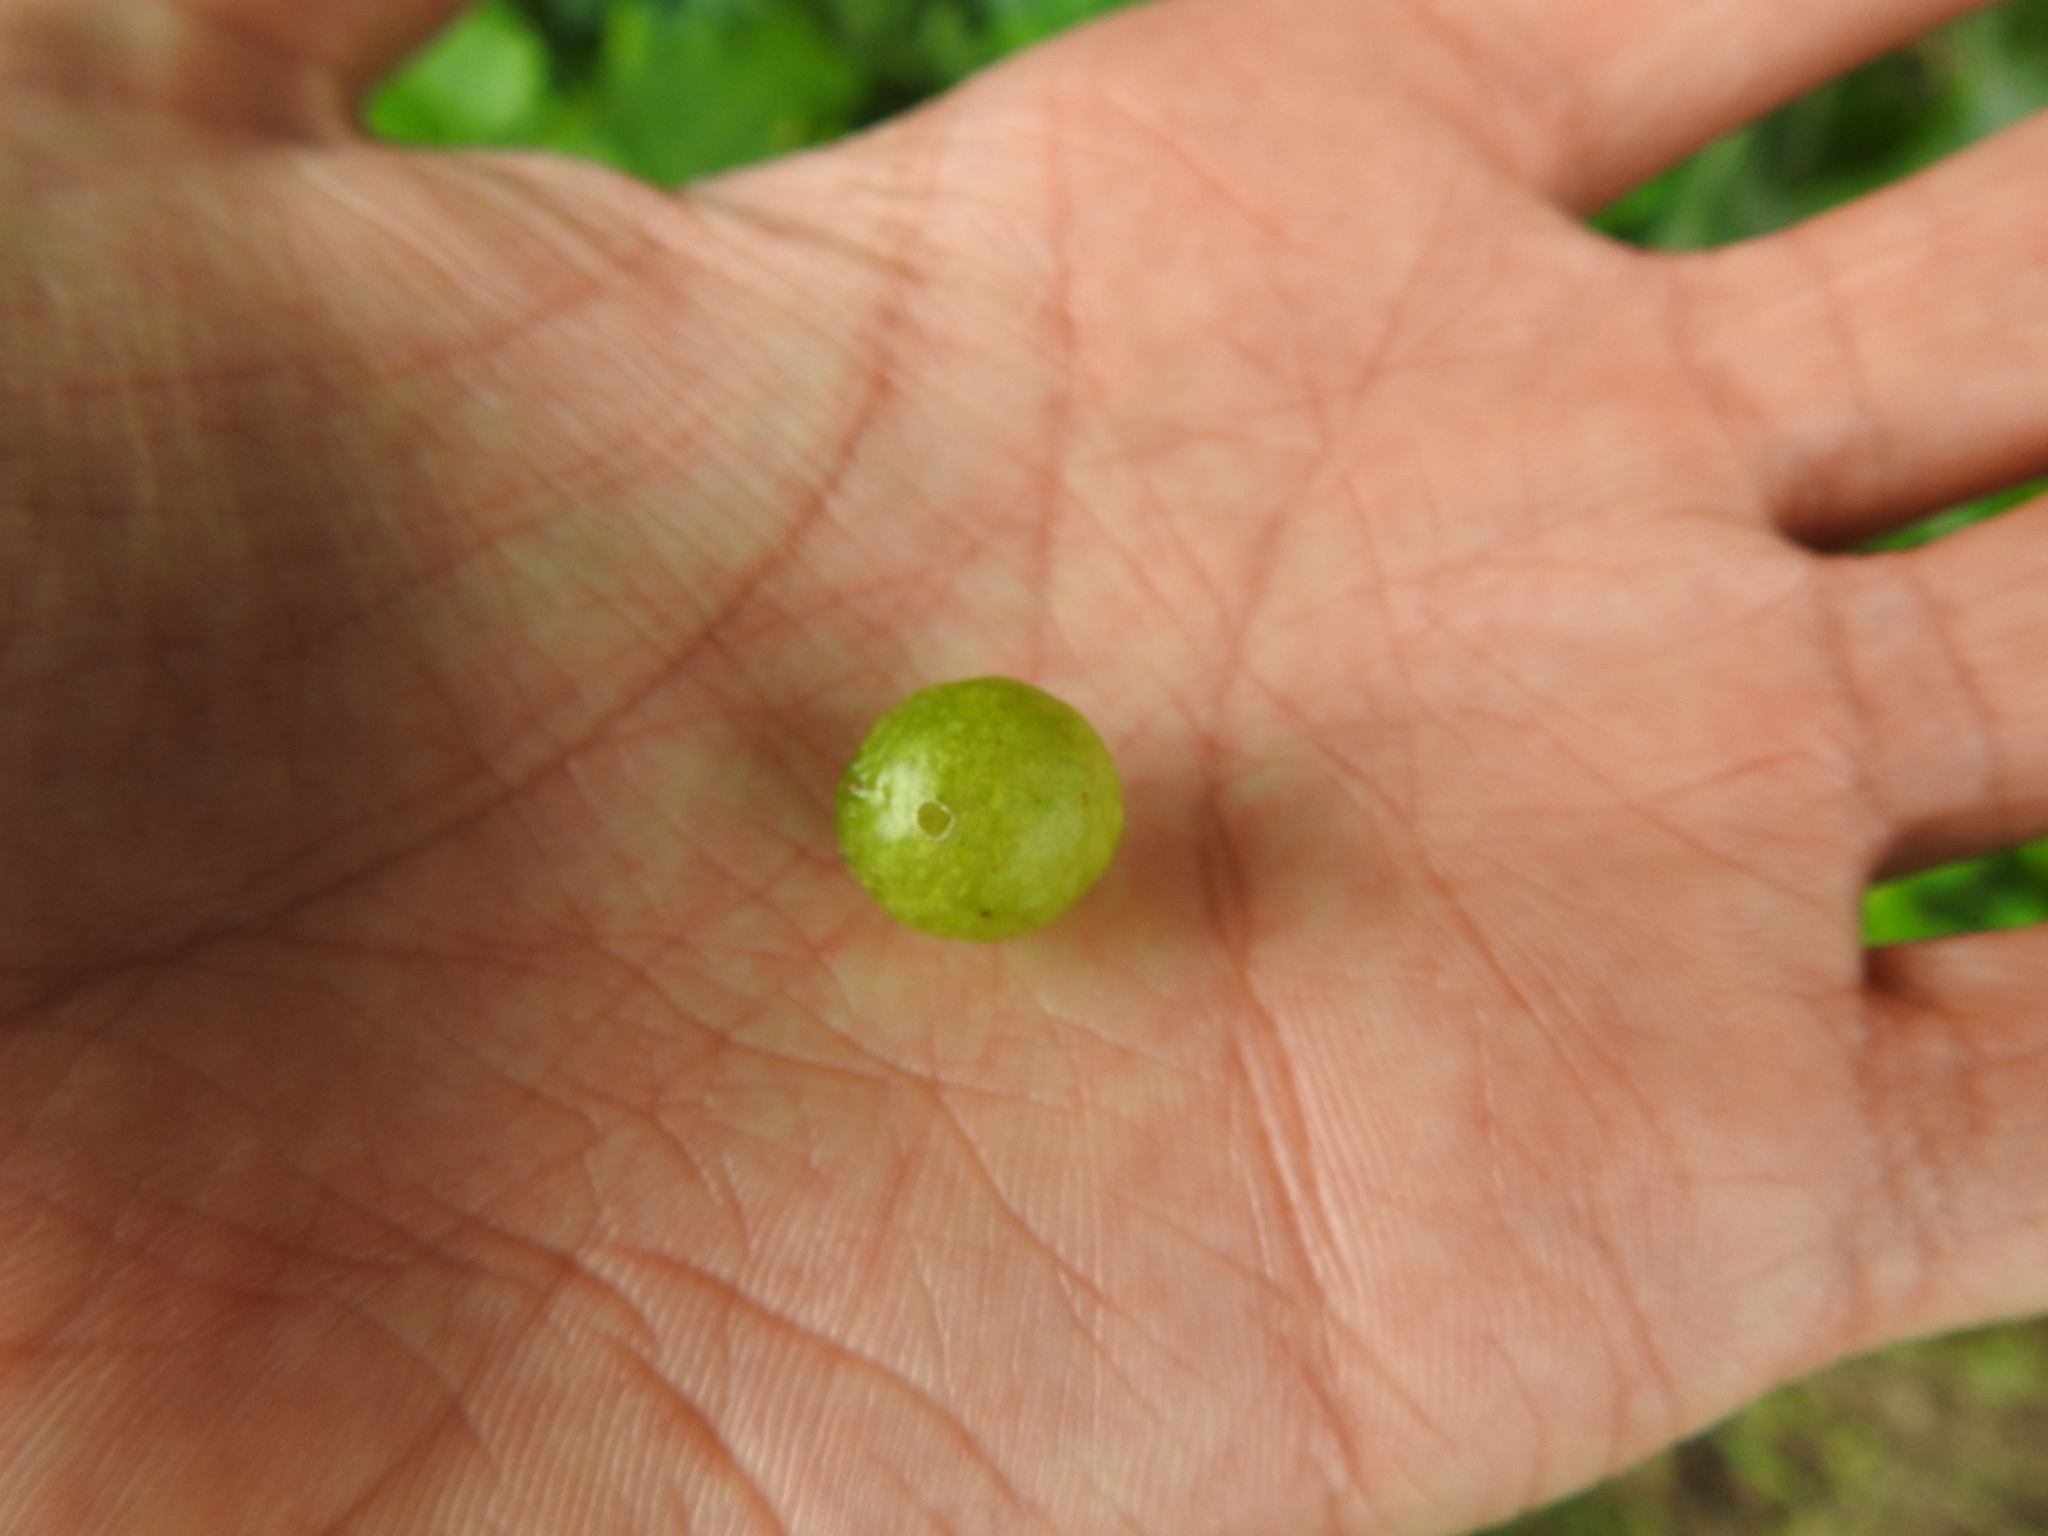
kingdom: Animalia
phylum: Arthropoda
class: Insecta
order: Hymenoptera
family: Cynipidae
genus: Amphibolips
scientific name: Amphibolips
